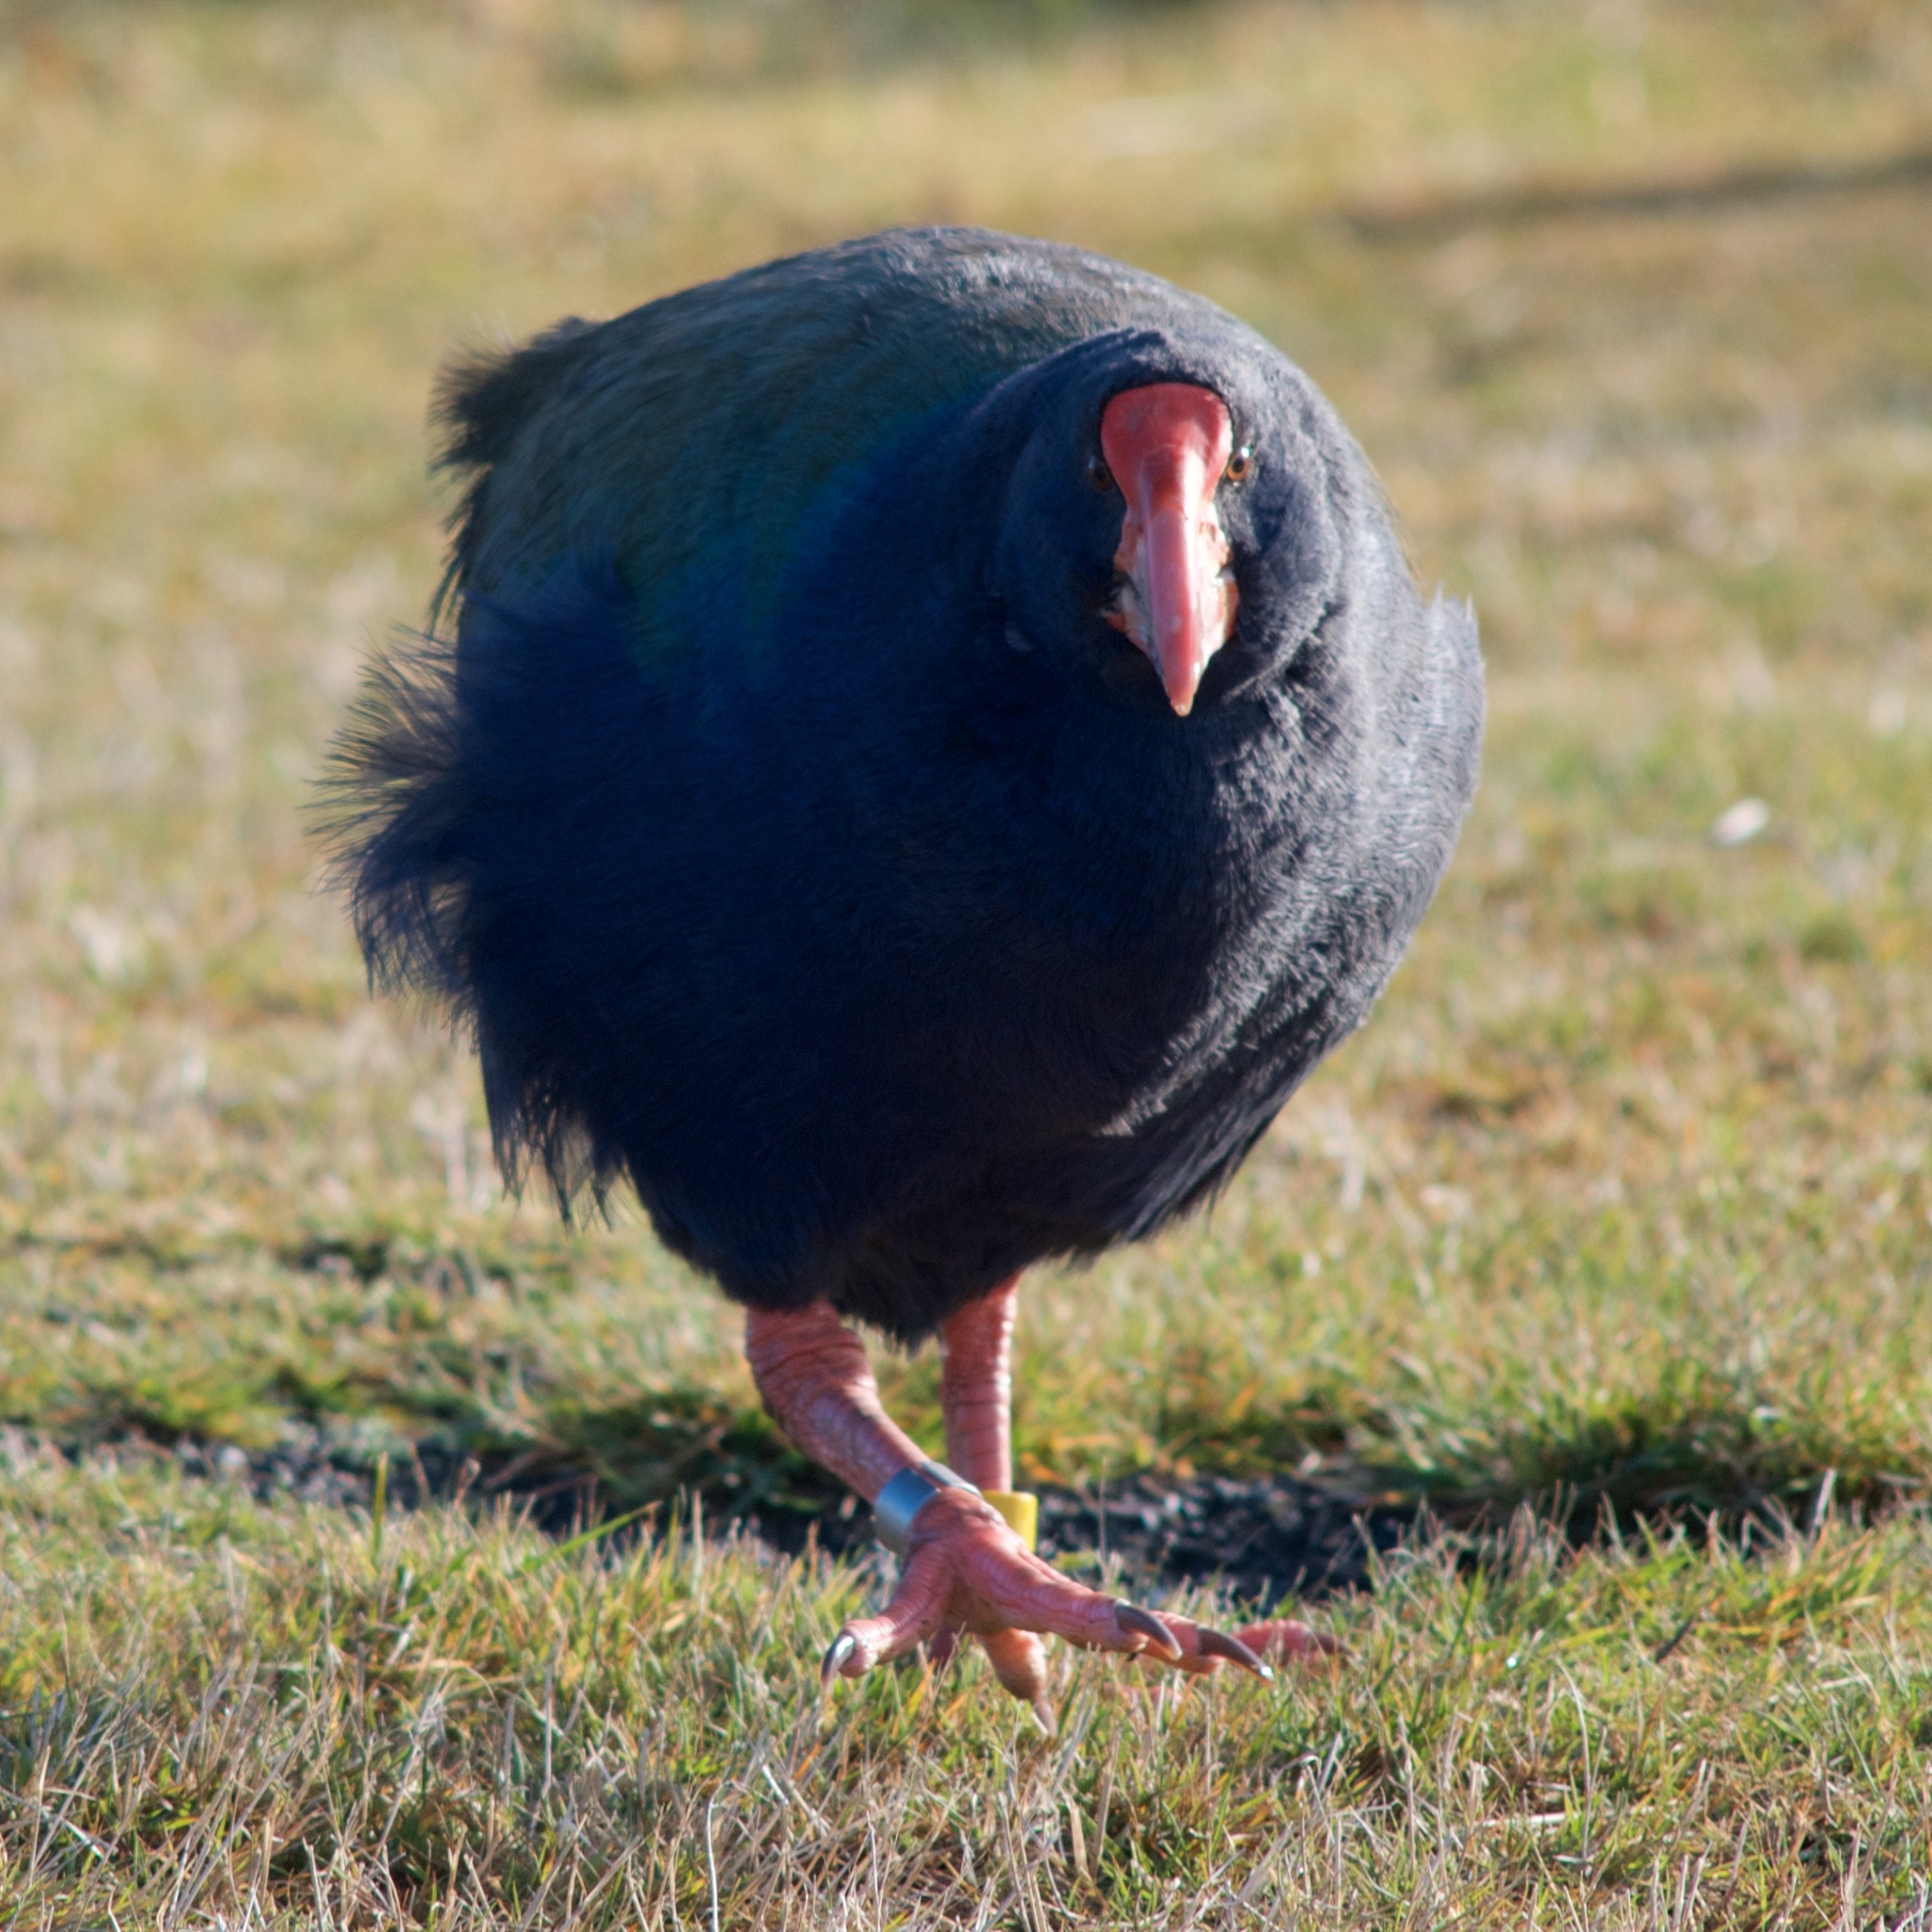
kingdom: Animalia
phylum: Chordata
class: Aves
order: Gruiformes
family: Rallidae
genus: Porphyrio
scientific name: Porphyrio hochstetteri
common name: South island takahe
